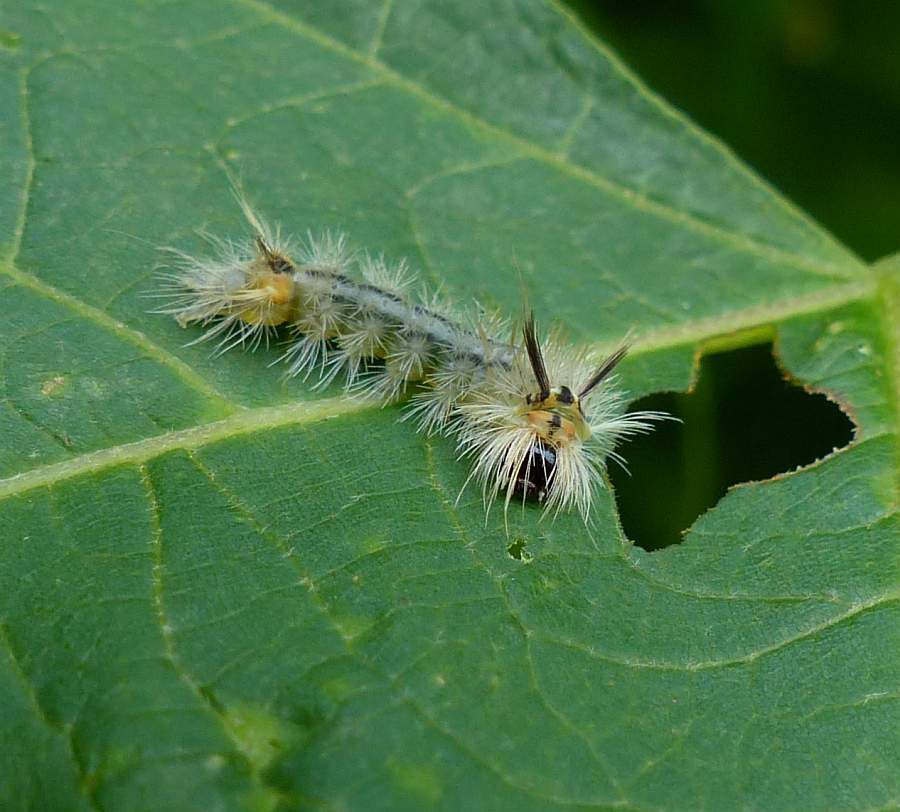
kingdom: Animalia
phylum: Arthropoda
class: Insecta
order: Lepidoptera
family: Erebidae
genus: Halysidota
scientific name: Halysidota tessellaris
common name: Banded tussock moth
